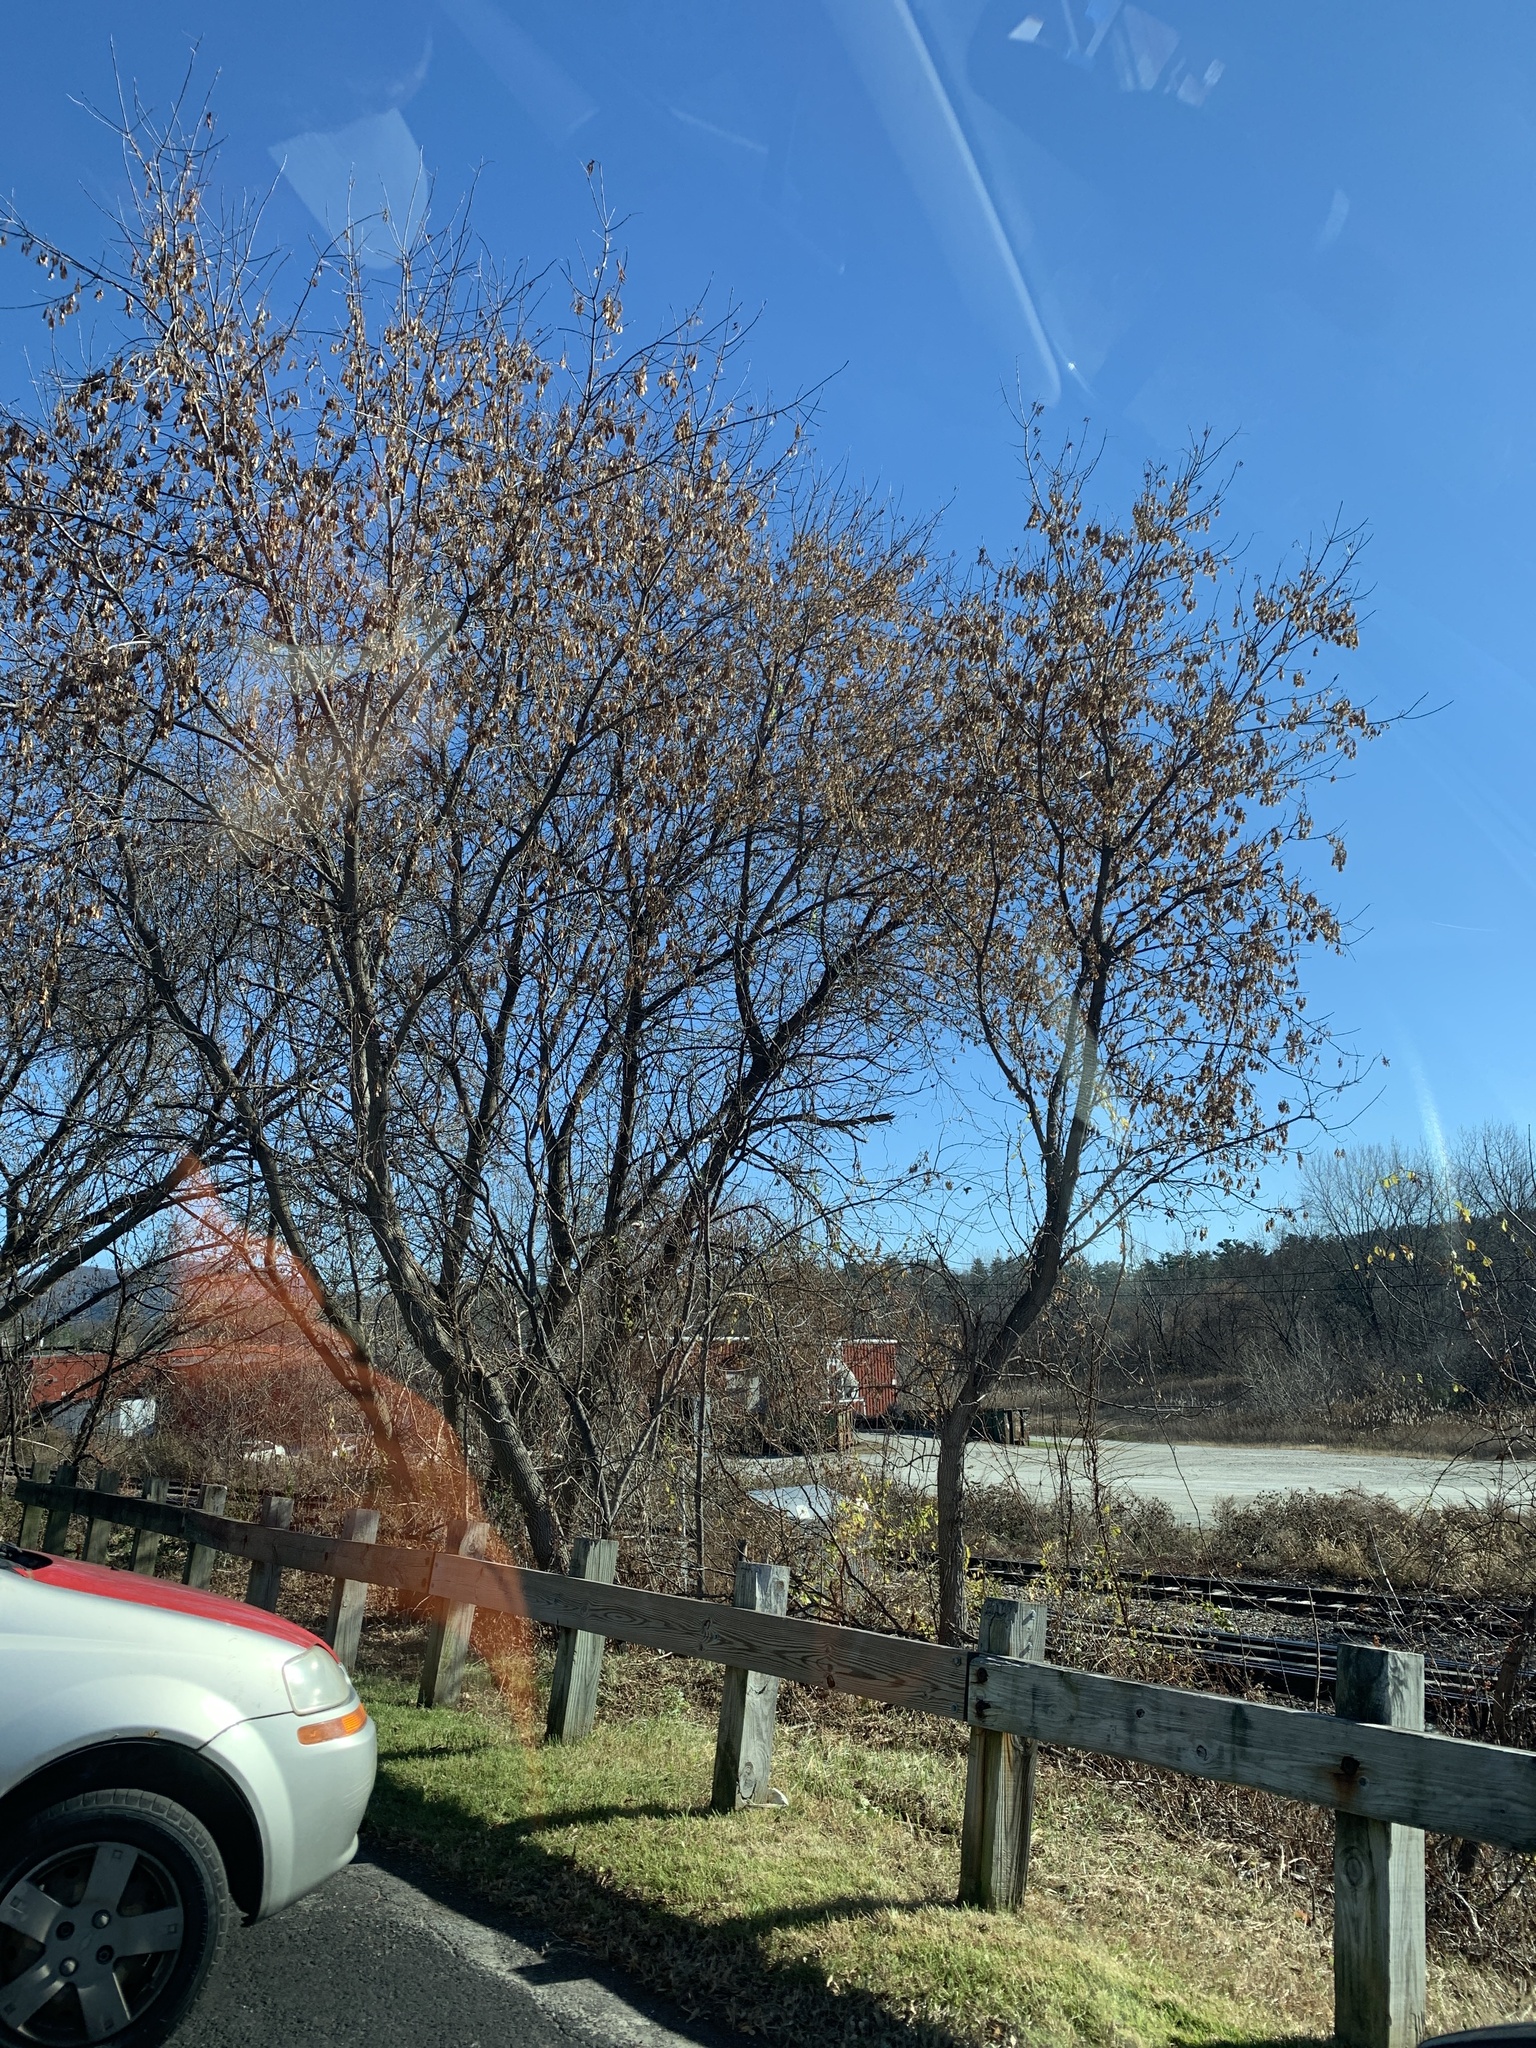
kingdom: Plantae
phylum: Tracheophyta
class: Magnoliopsida
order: Sapindales
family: Sapindaceae
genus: Acer
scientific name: Acer negundo
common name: Ashleaf maple
